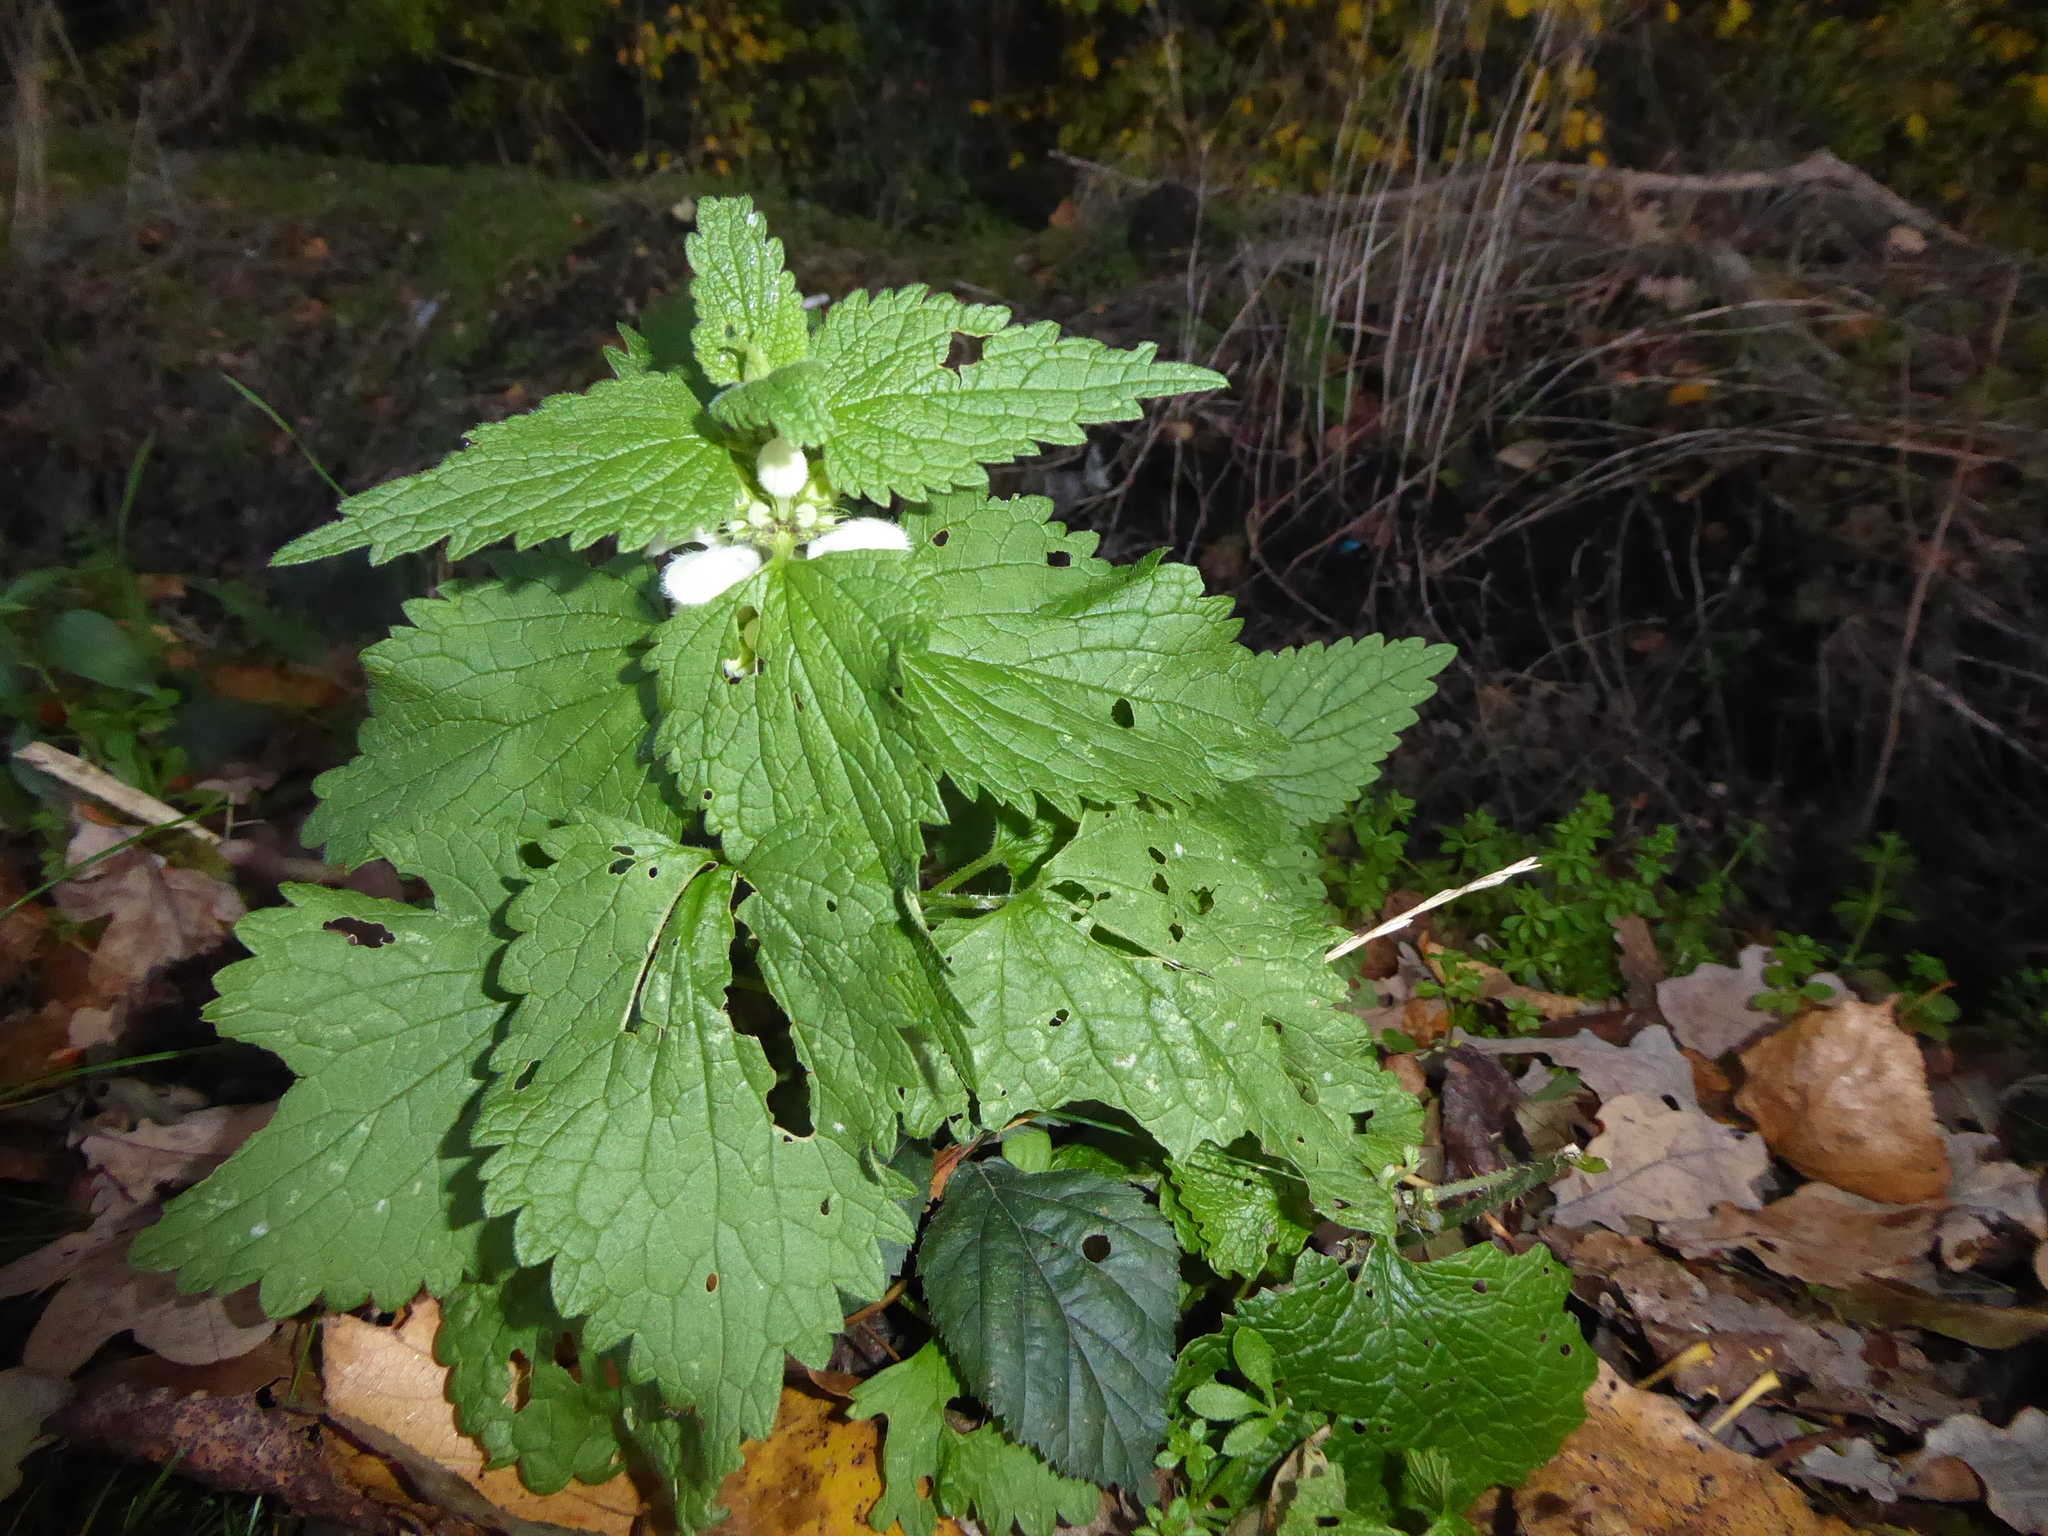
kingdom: Plantae
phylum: Tracheophyta
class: Magnoliopsida
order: Lamiales
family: Lamiaceae
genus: Lamium
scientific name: Lamium album
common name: White dead-nettle
